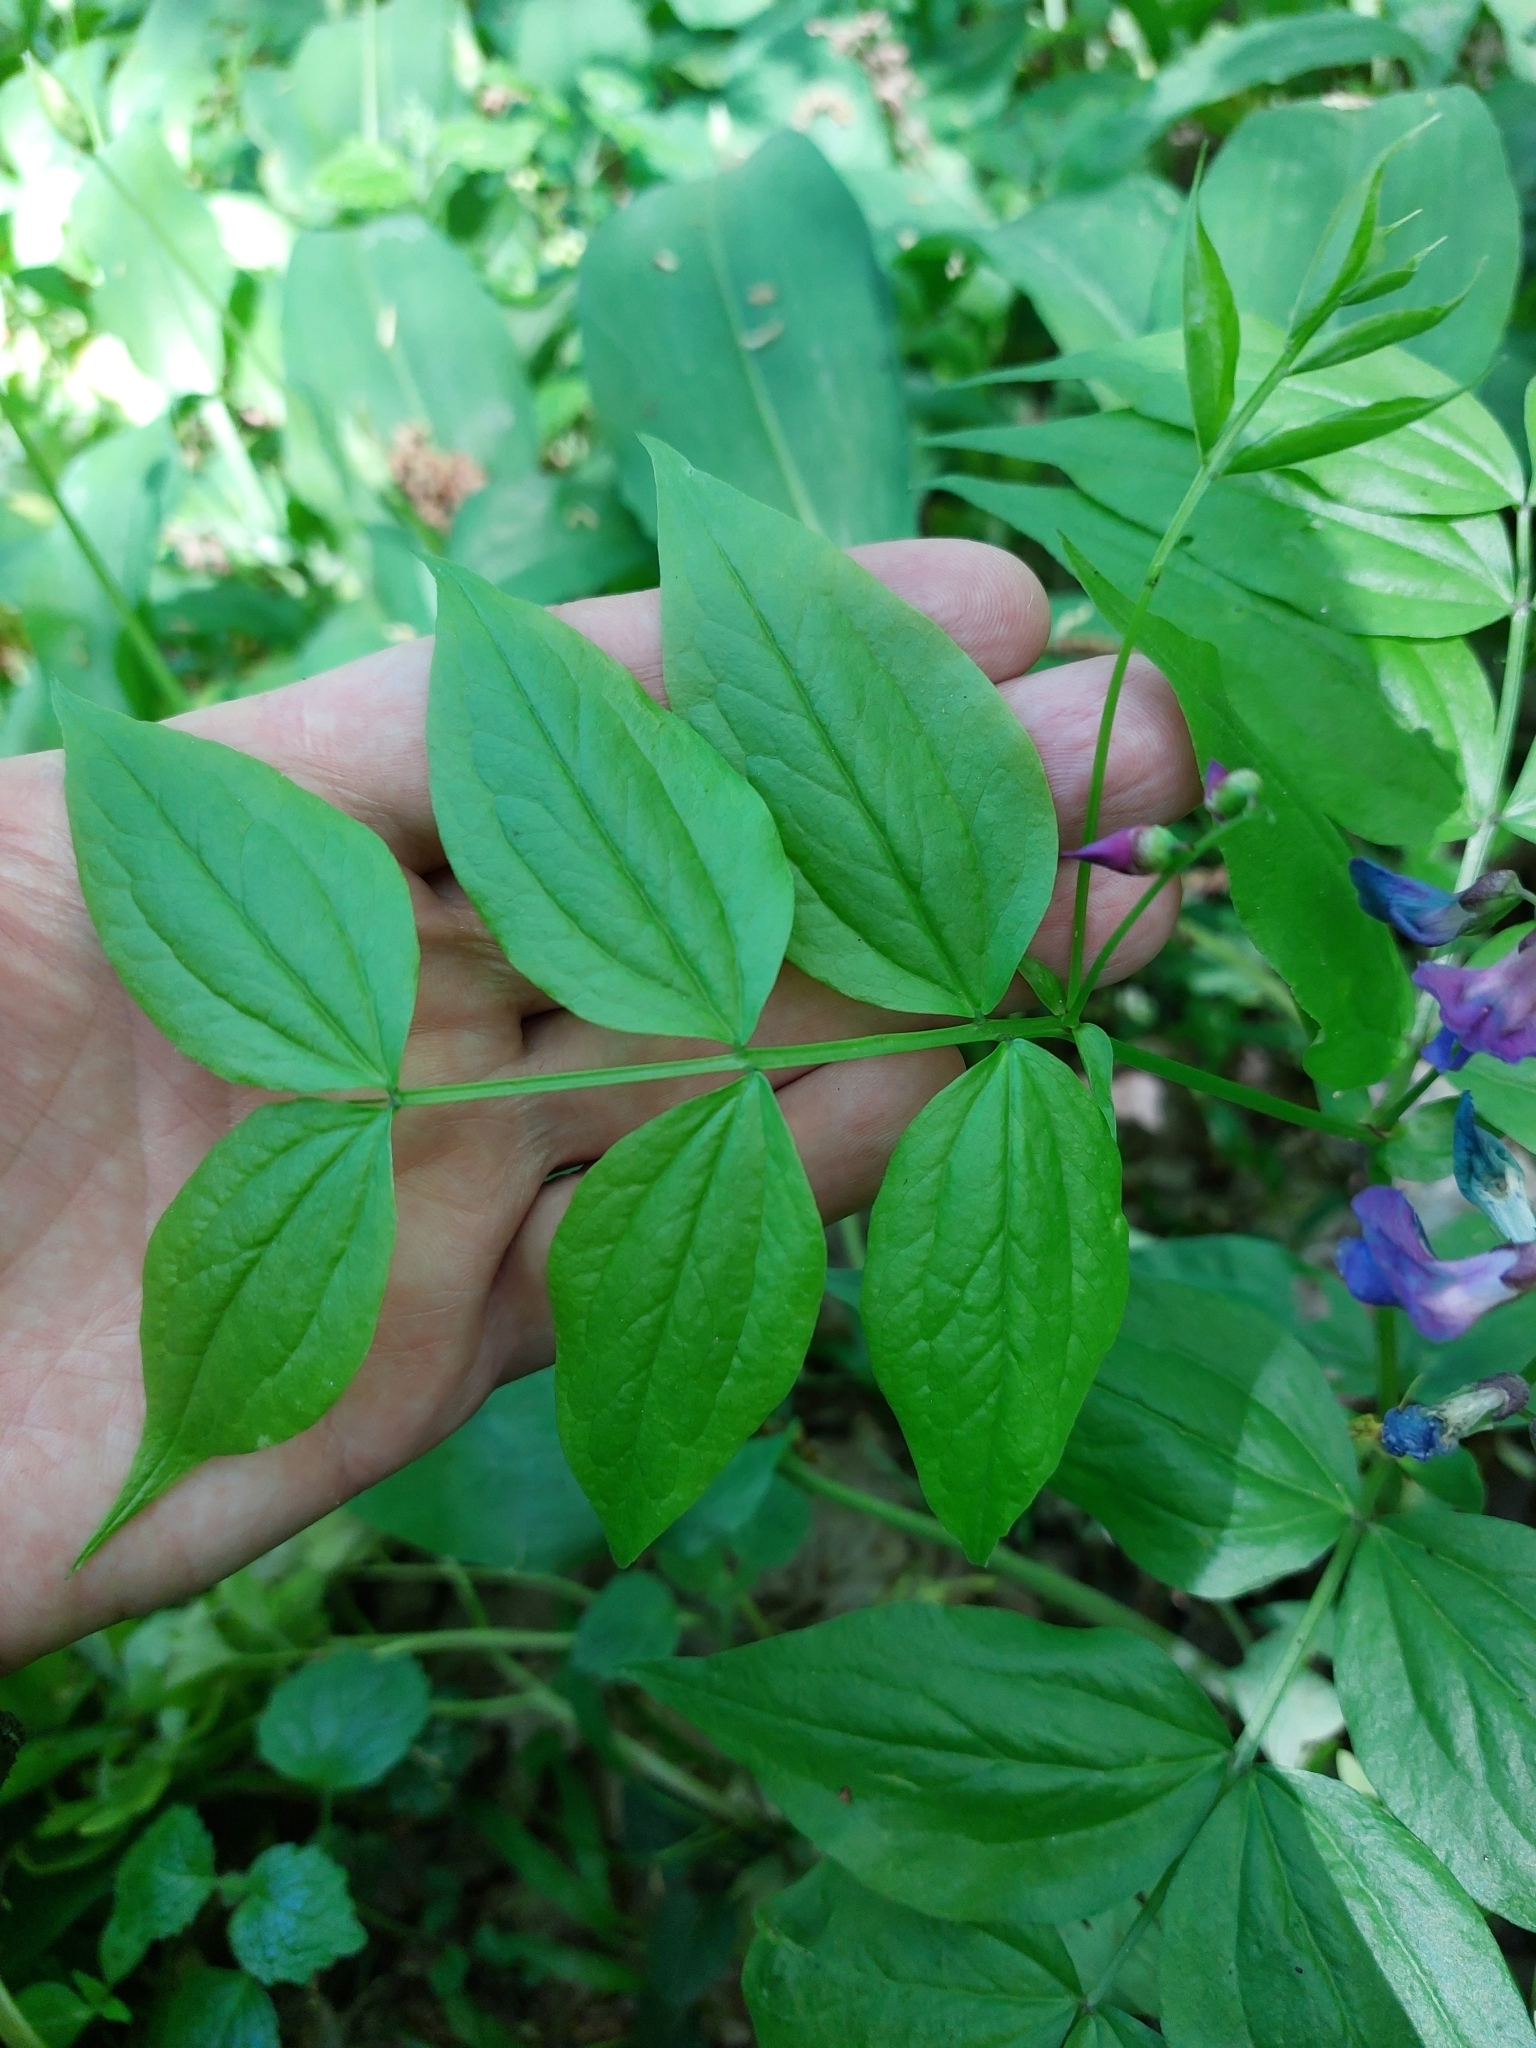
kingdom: Plantae
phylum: Tracheophyta
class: Magnoliopsida
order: Fabales
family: Fabaceae
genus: Lathyrus
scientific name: Lathyrus vernus
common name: Spring pea
